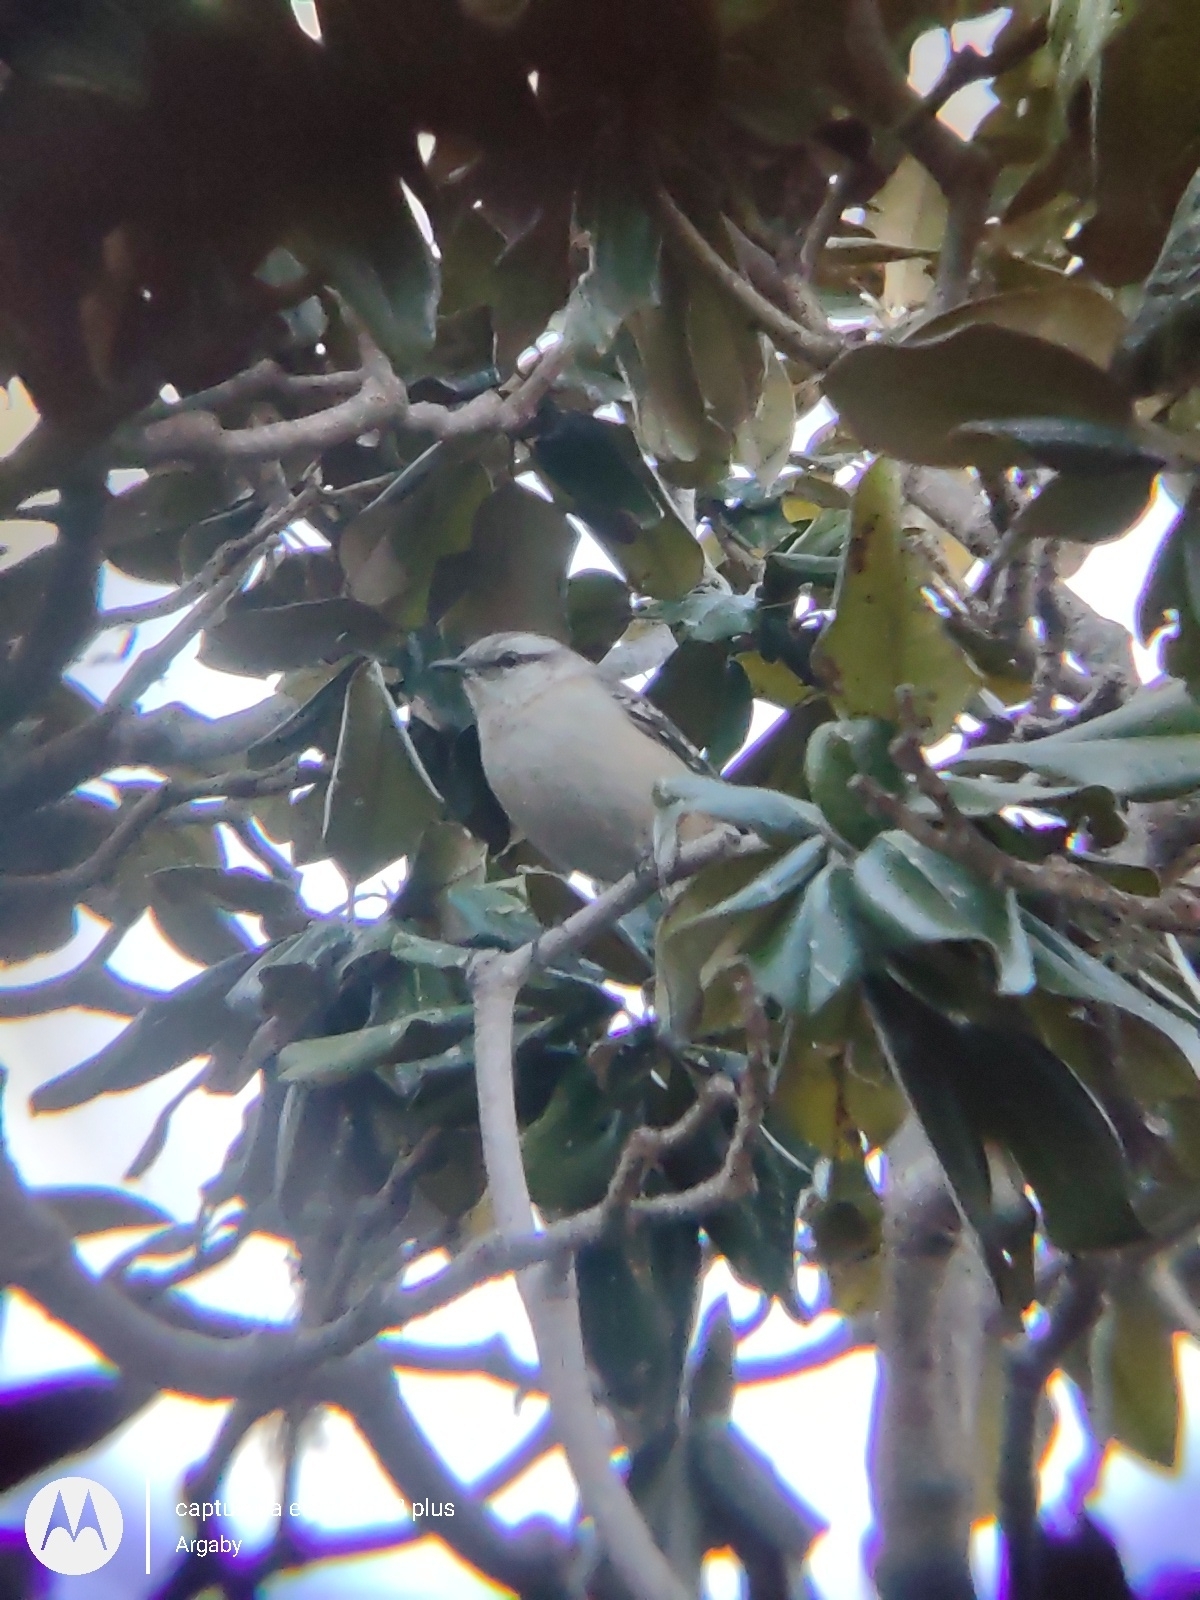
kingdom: Animalia
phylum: Chordata
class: Aves
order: Passeriformes
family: Mimidae
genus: Mimus
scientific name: Mimus saturninus
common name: Chalk-browed mockingbird
